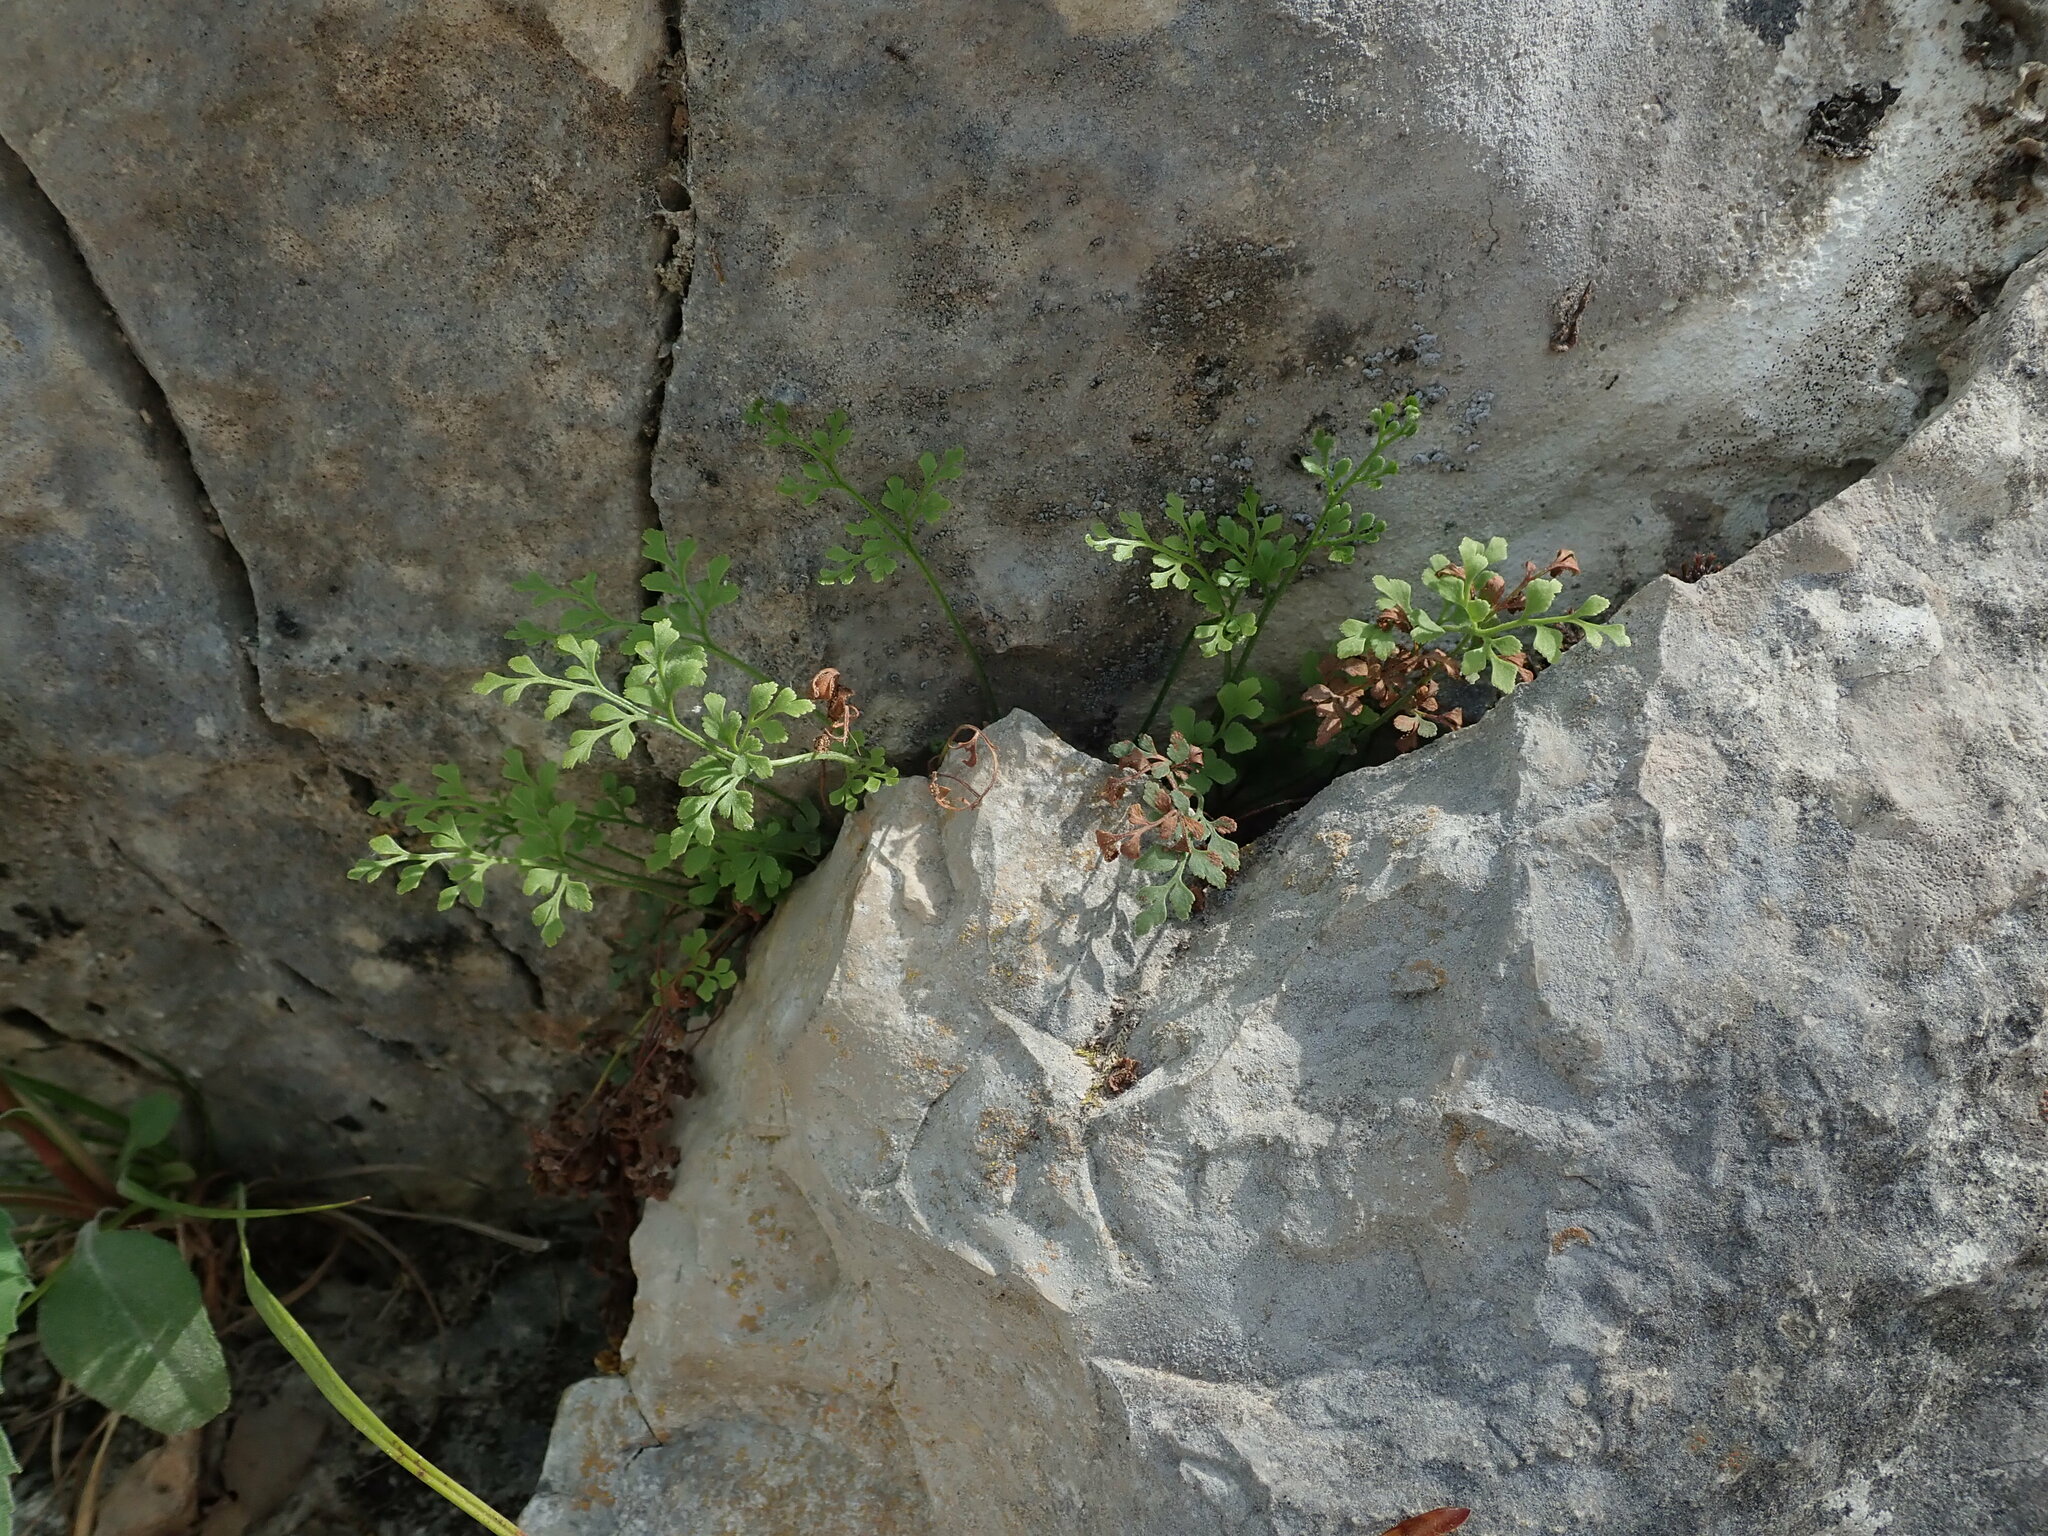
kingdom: Plantae
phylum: Tracheophyta
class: Polypodiopsida
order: Polypodiales
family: Aspleniaceae
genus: Asplenium
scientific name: Asplenium ruta-muraria
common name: Wall-rue
